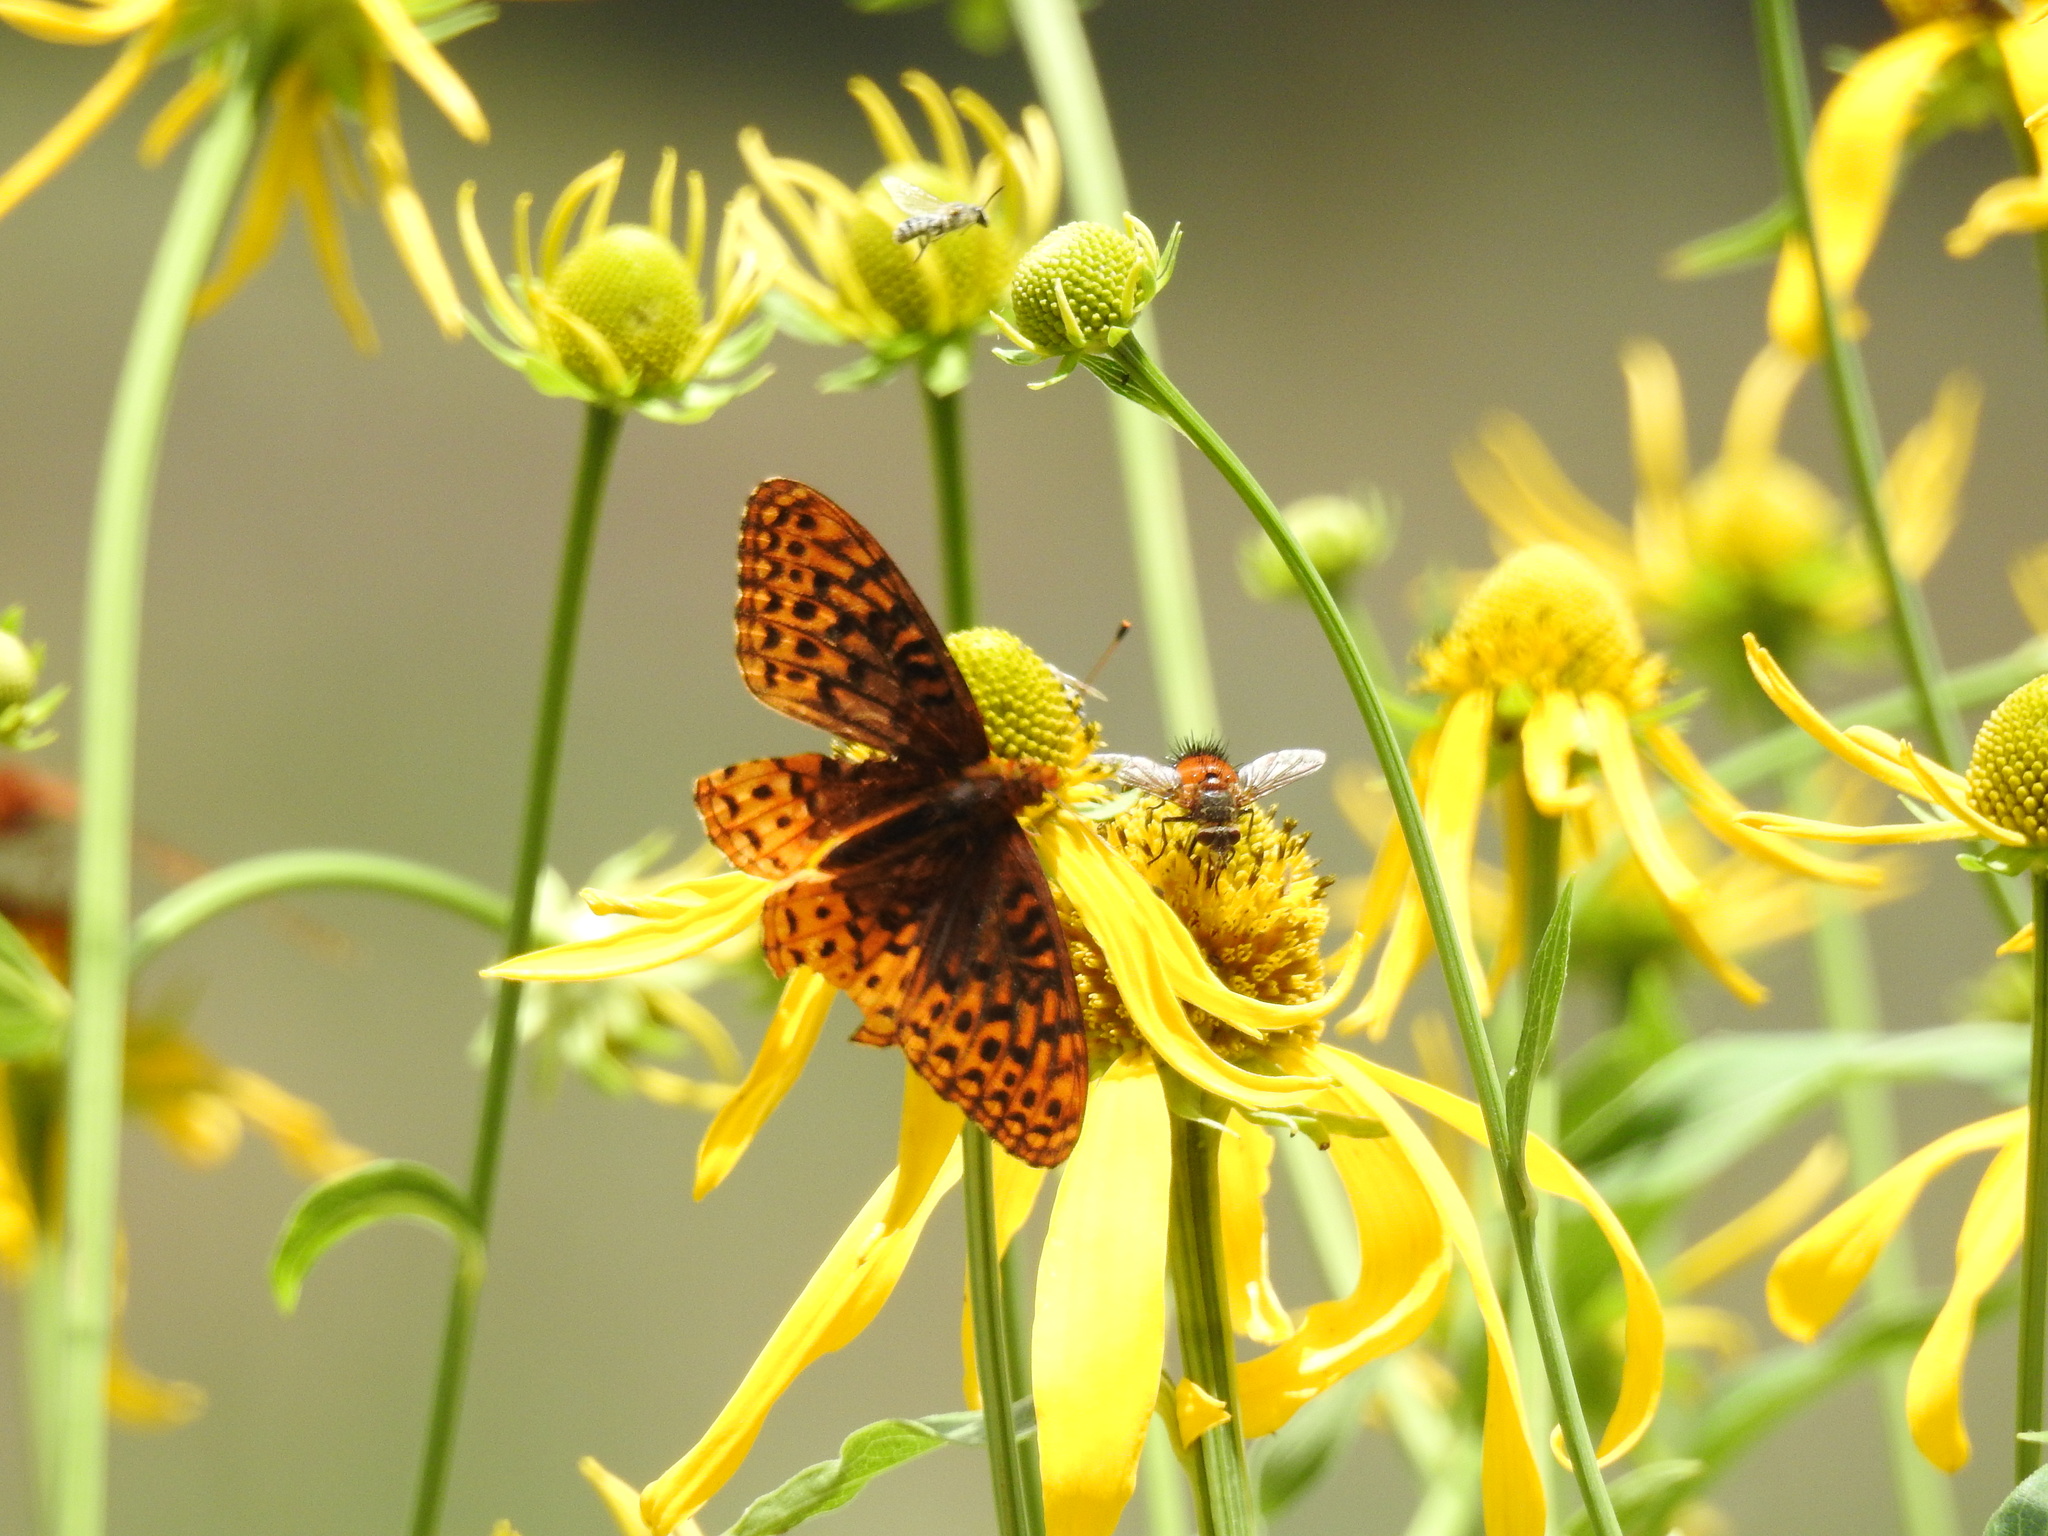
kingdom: Animalia
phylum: Arthropoda
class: Insecta
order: Lepidoptera
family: Nymphalidae
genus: Speyeria
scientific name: Speyeria atlantis
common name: Atlantis fritillary
